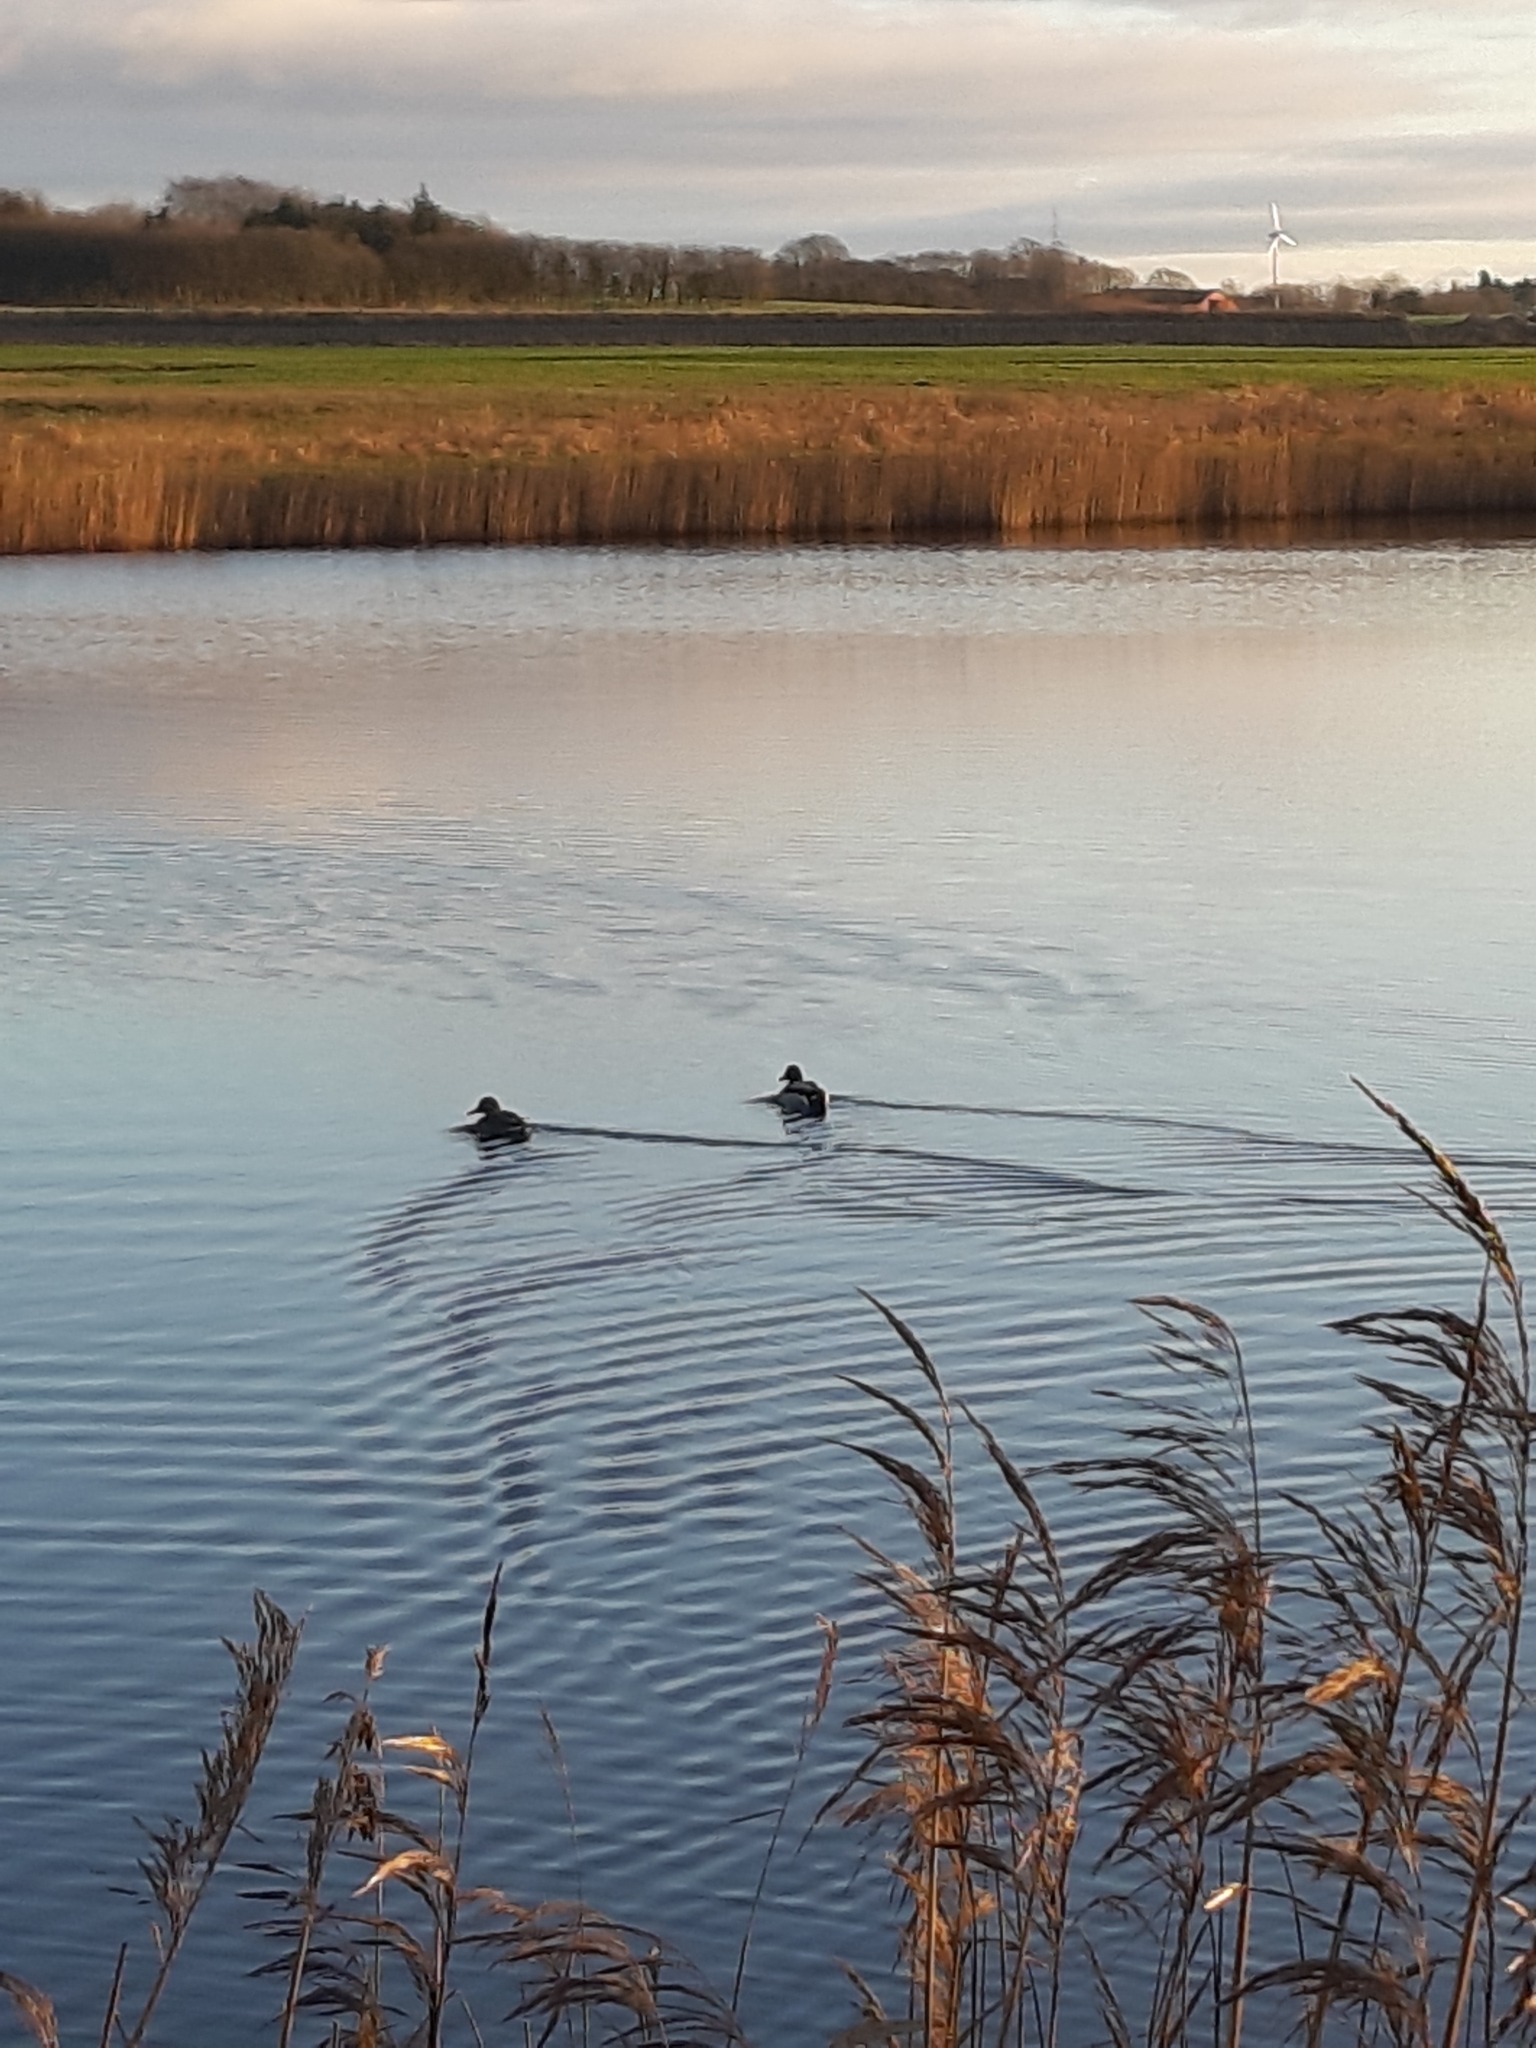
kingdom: Animalia
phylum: Chordata
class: Aves
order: Anseriformes
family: Anatidae
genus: Anas
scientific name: Anas platyrhynchos
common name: Mallard
